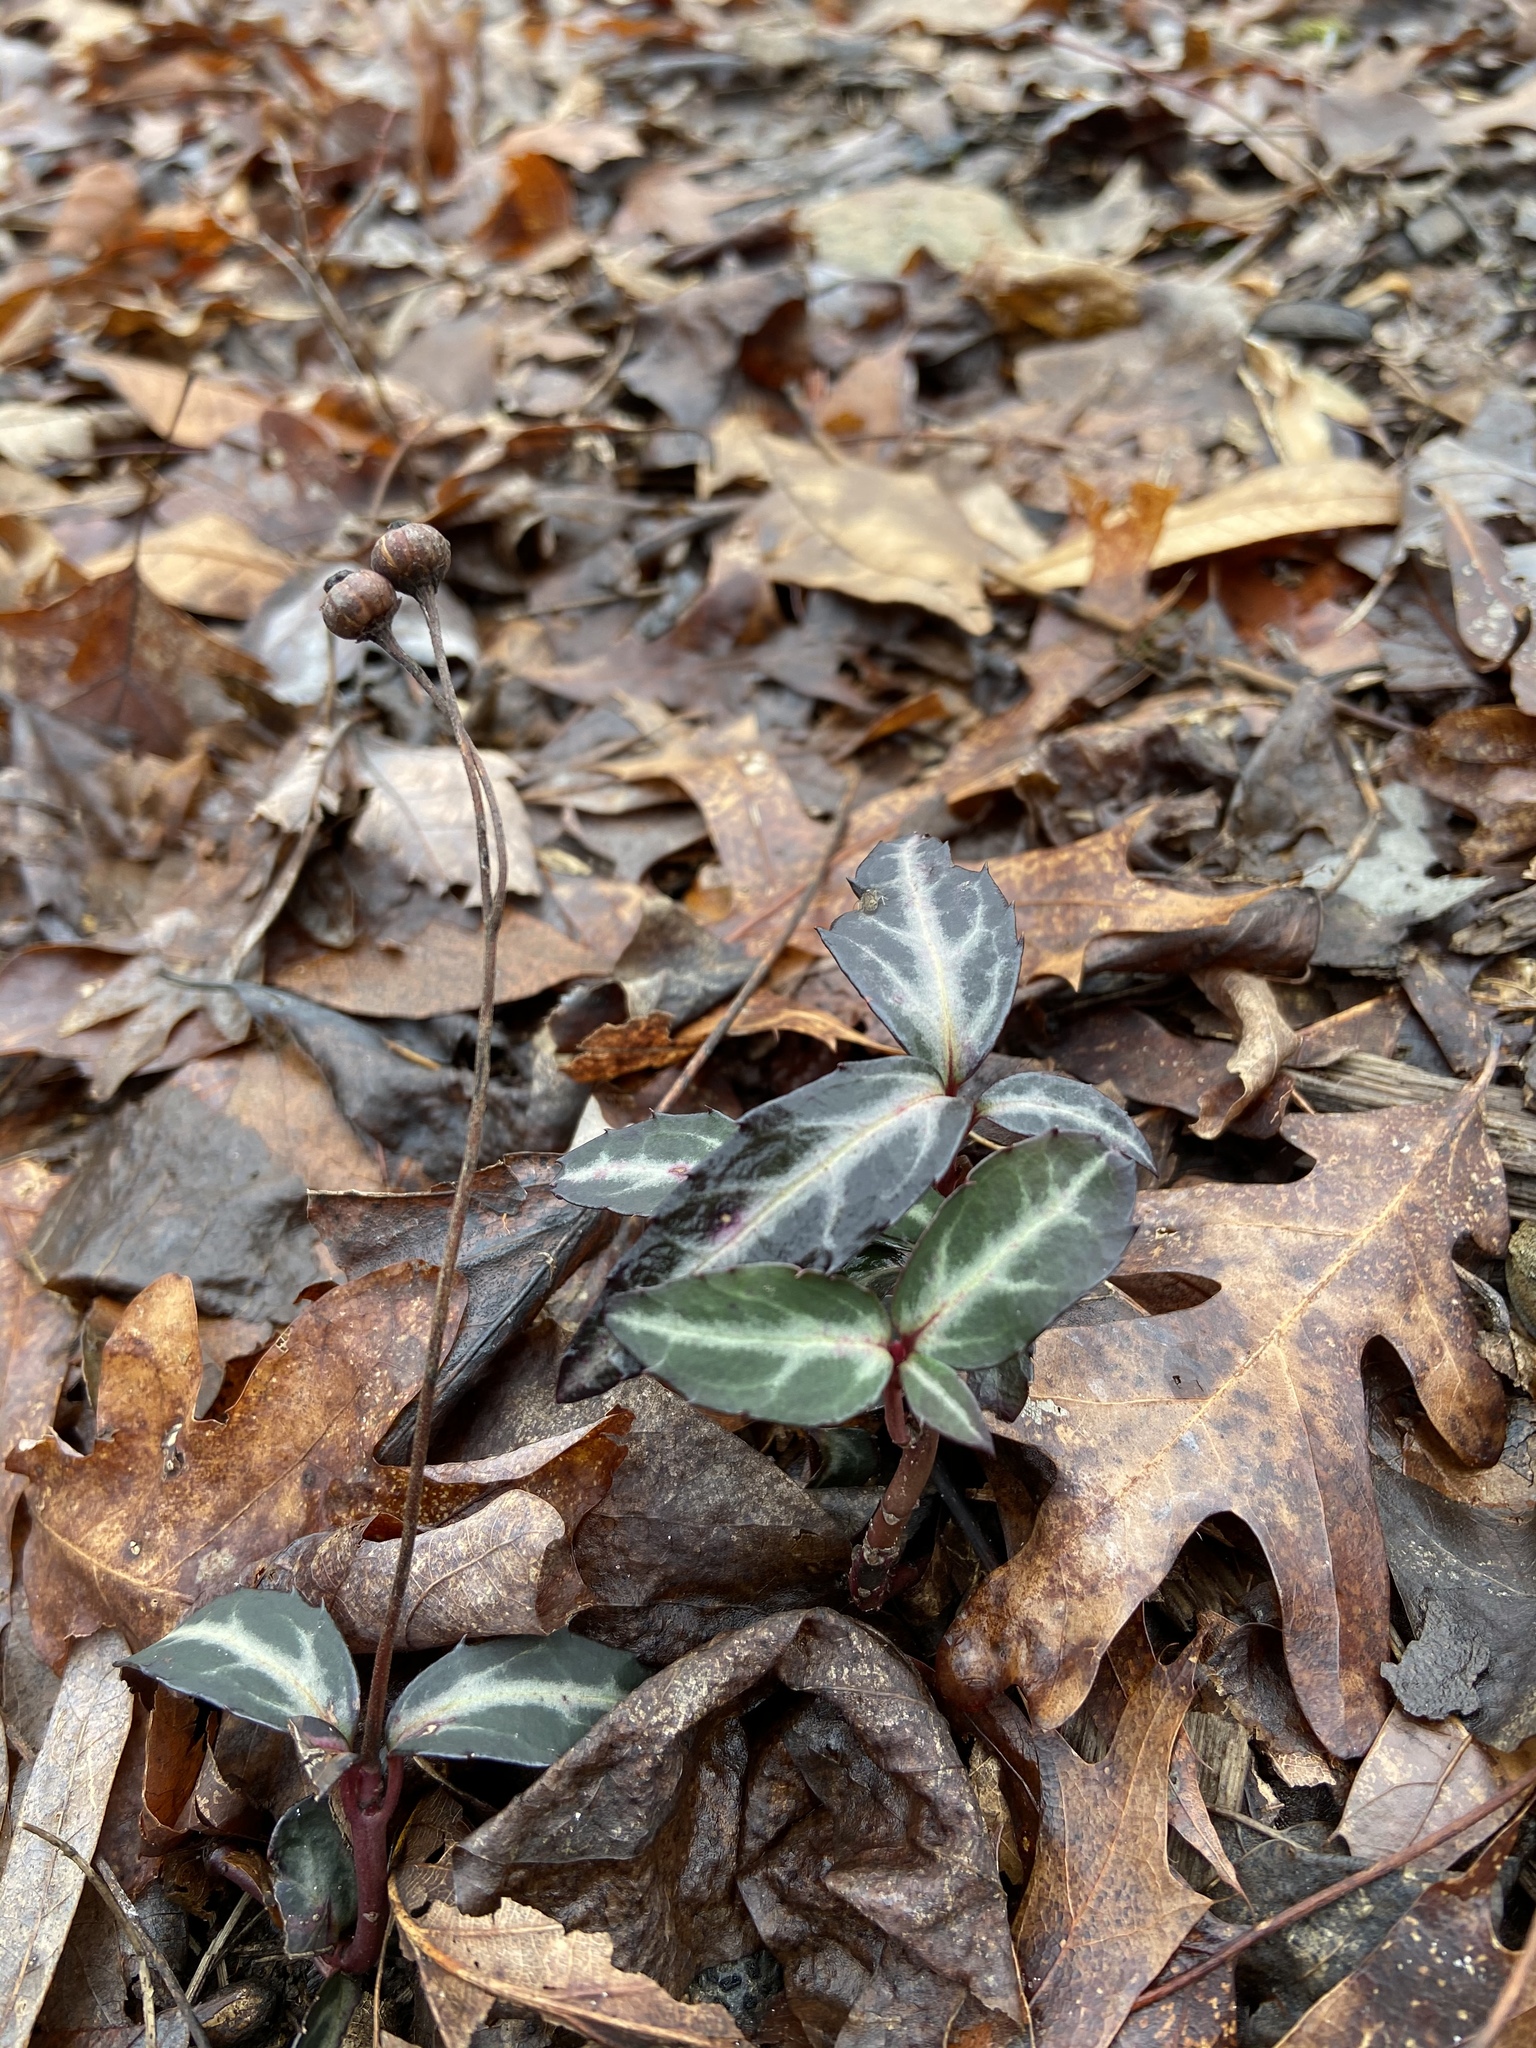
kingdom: Plantae
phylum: Tracheophyta
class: Magnoliopsida
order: Ericales
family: Ericaceae
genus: Chimaphila
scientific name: Chimaphila maculata
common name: Spotted pipsissewa
